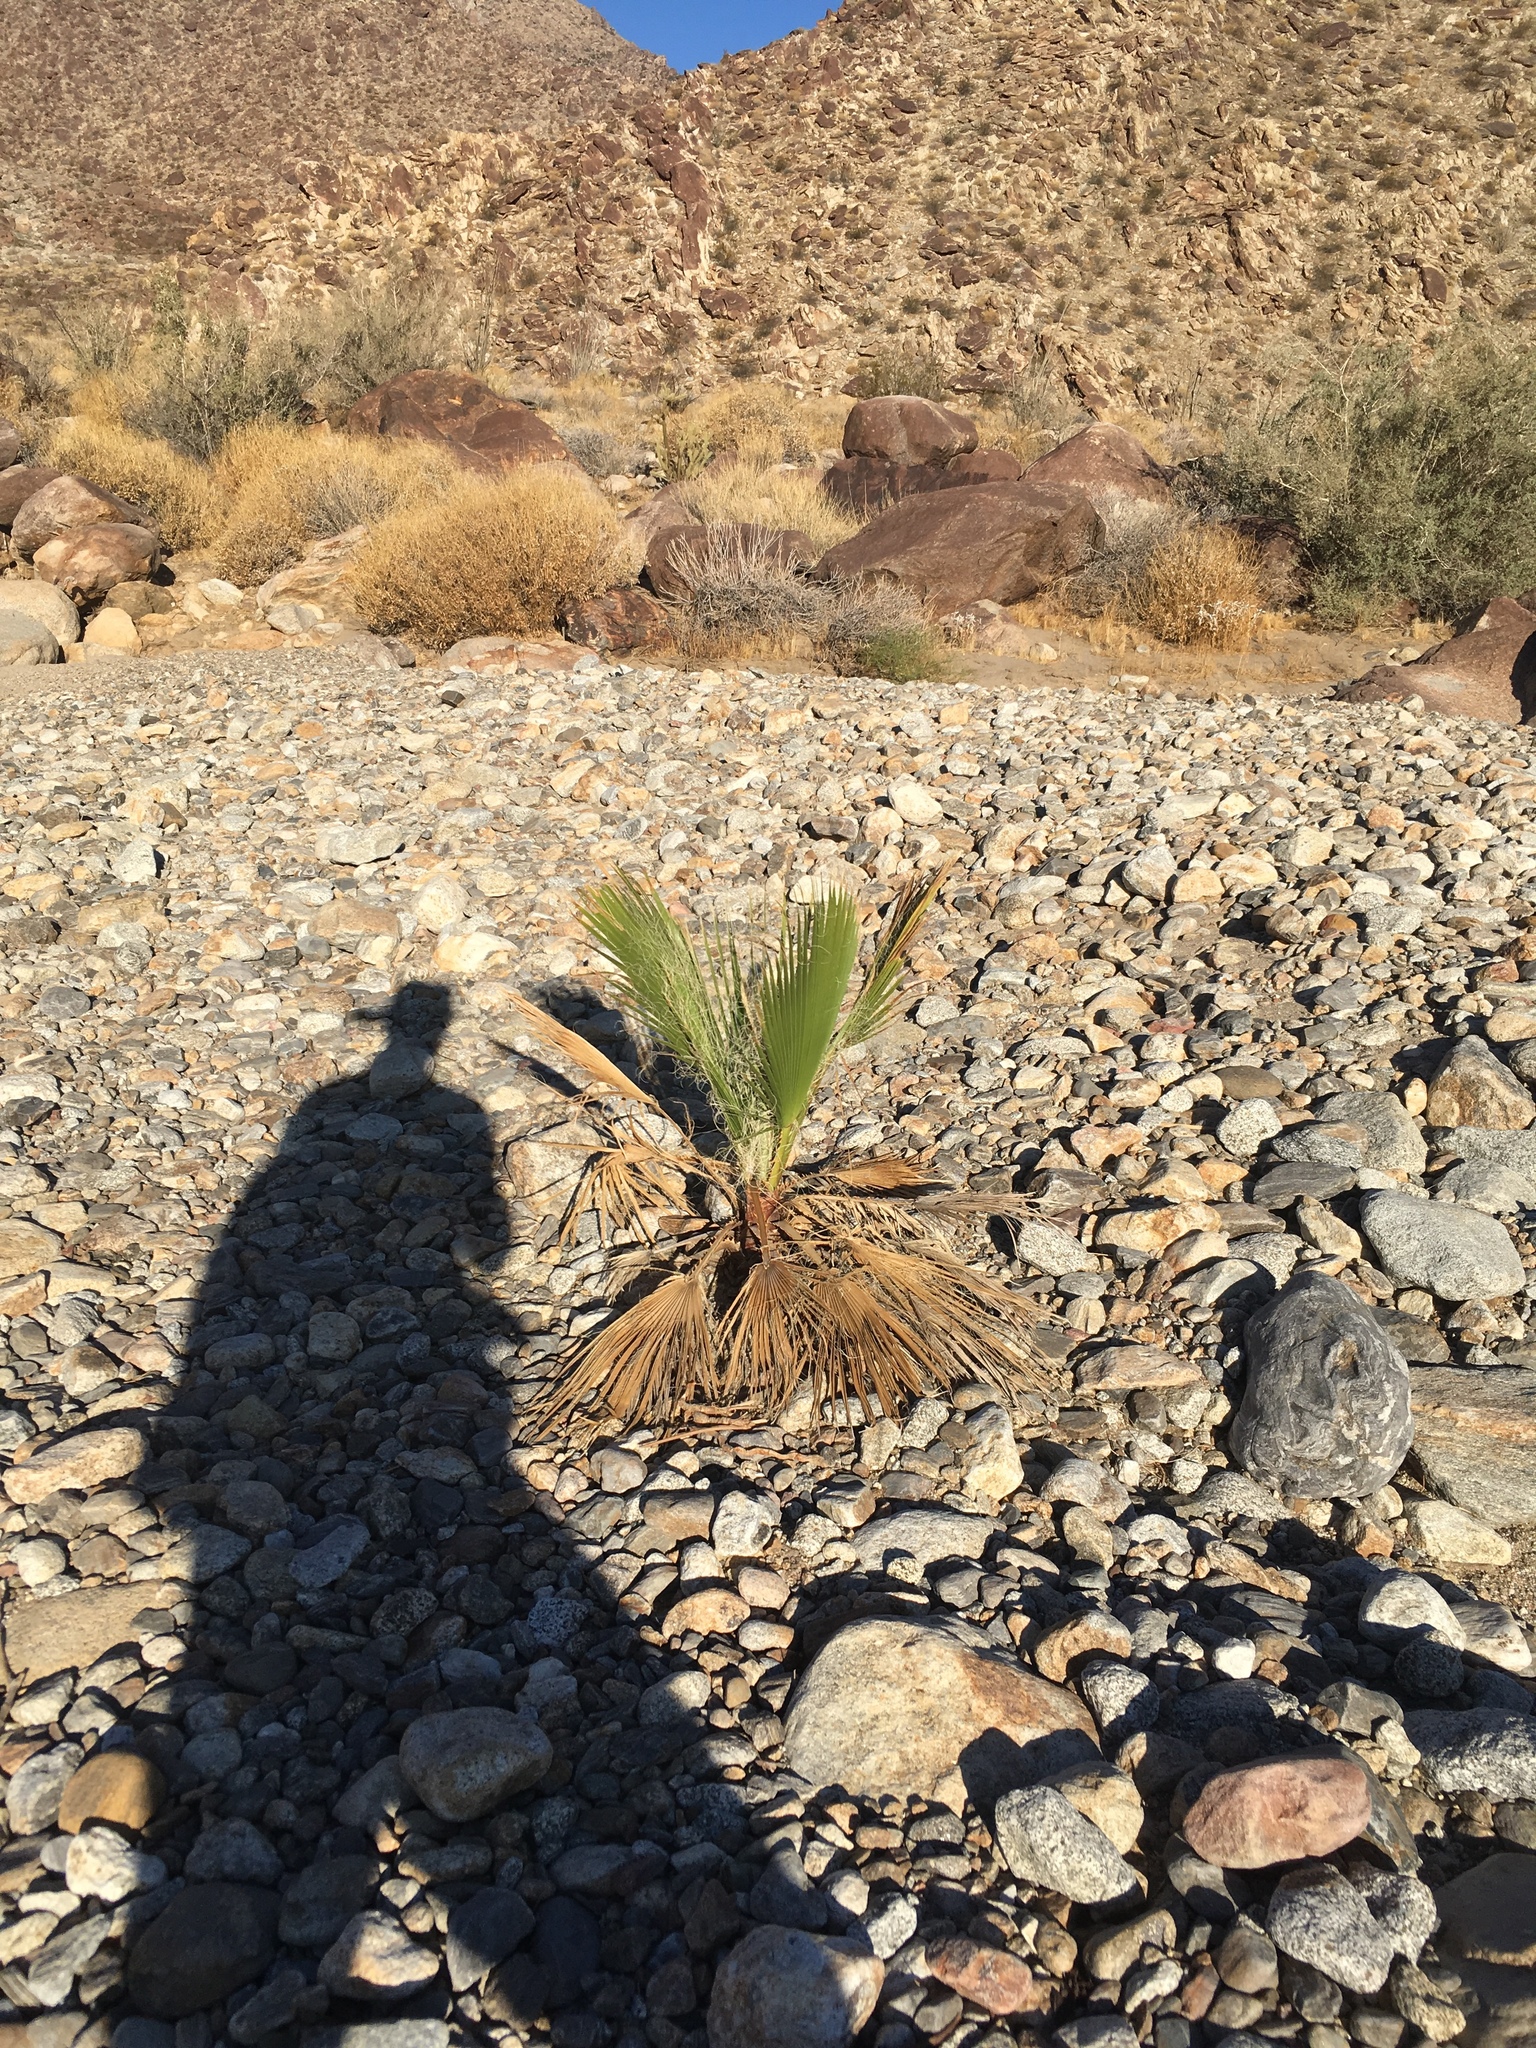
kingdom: Plantae
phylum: Tracheophyta
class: Liliopsida
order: Arecales
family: Arecaceae
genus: Washingtonia
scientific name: Washingtonia filifera
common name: California fan palm
